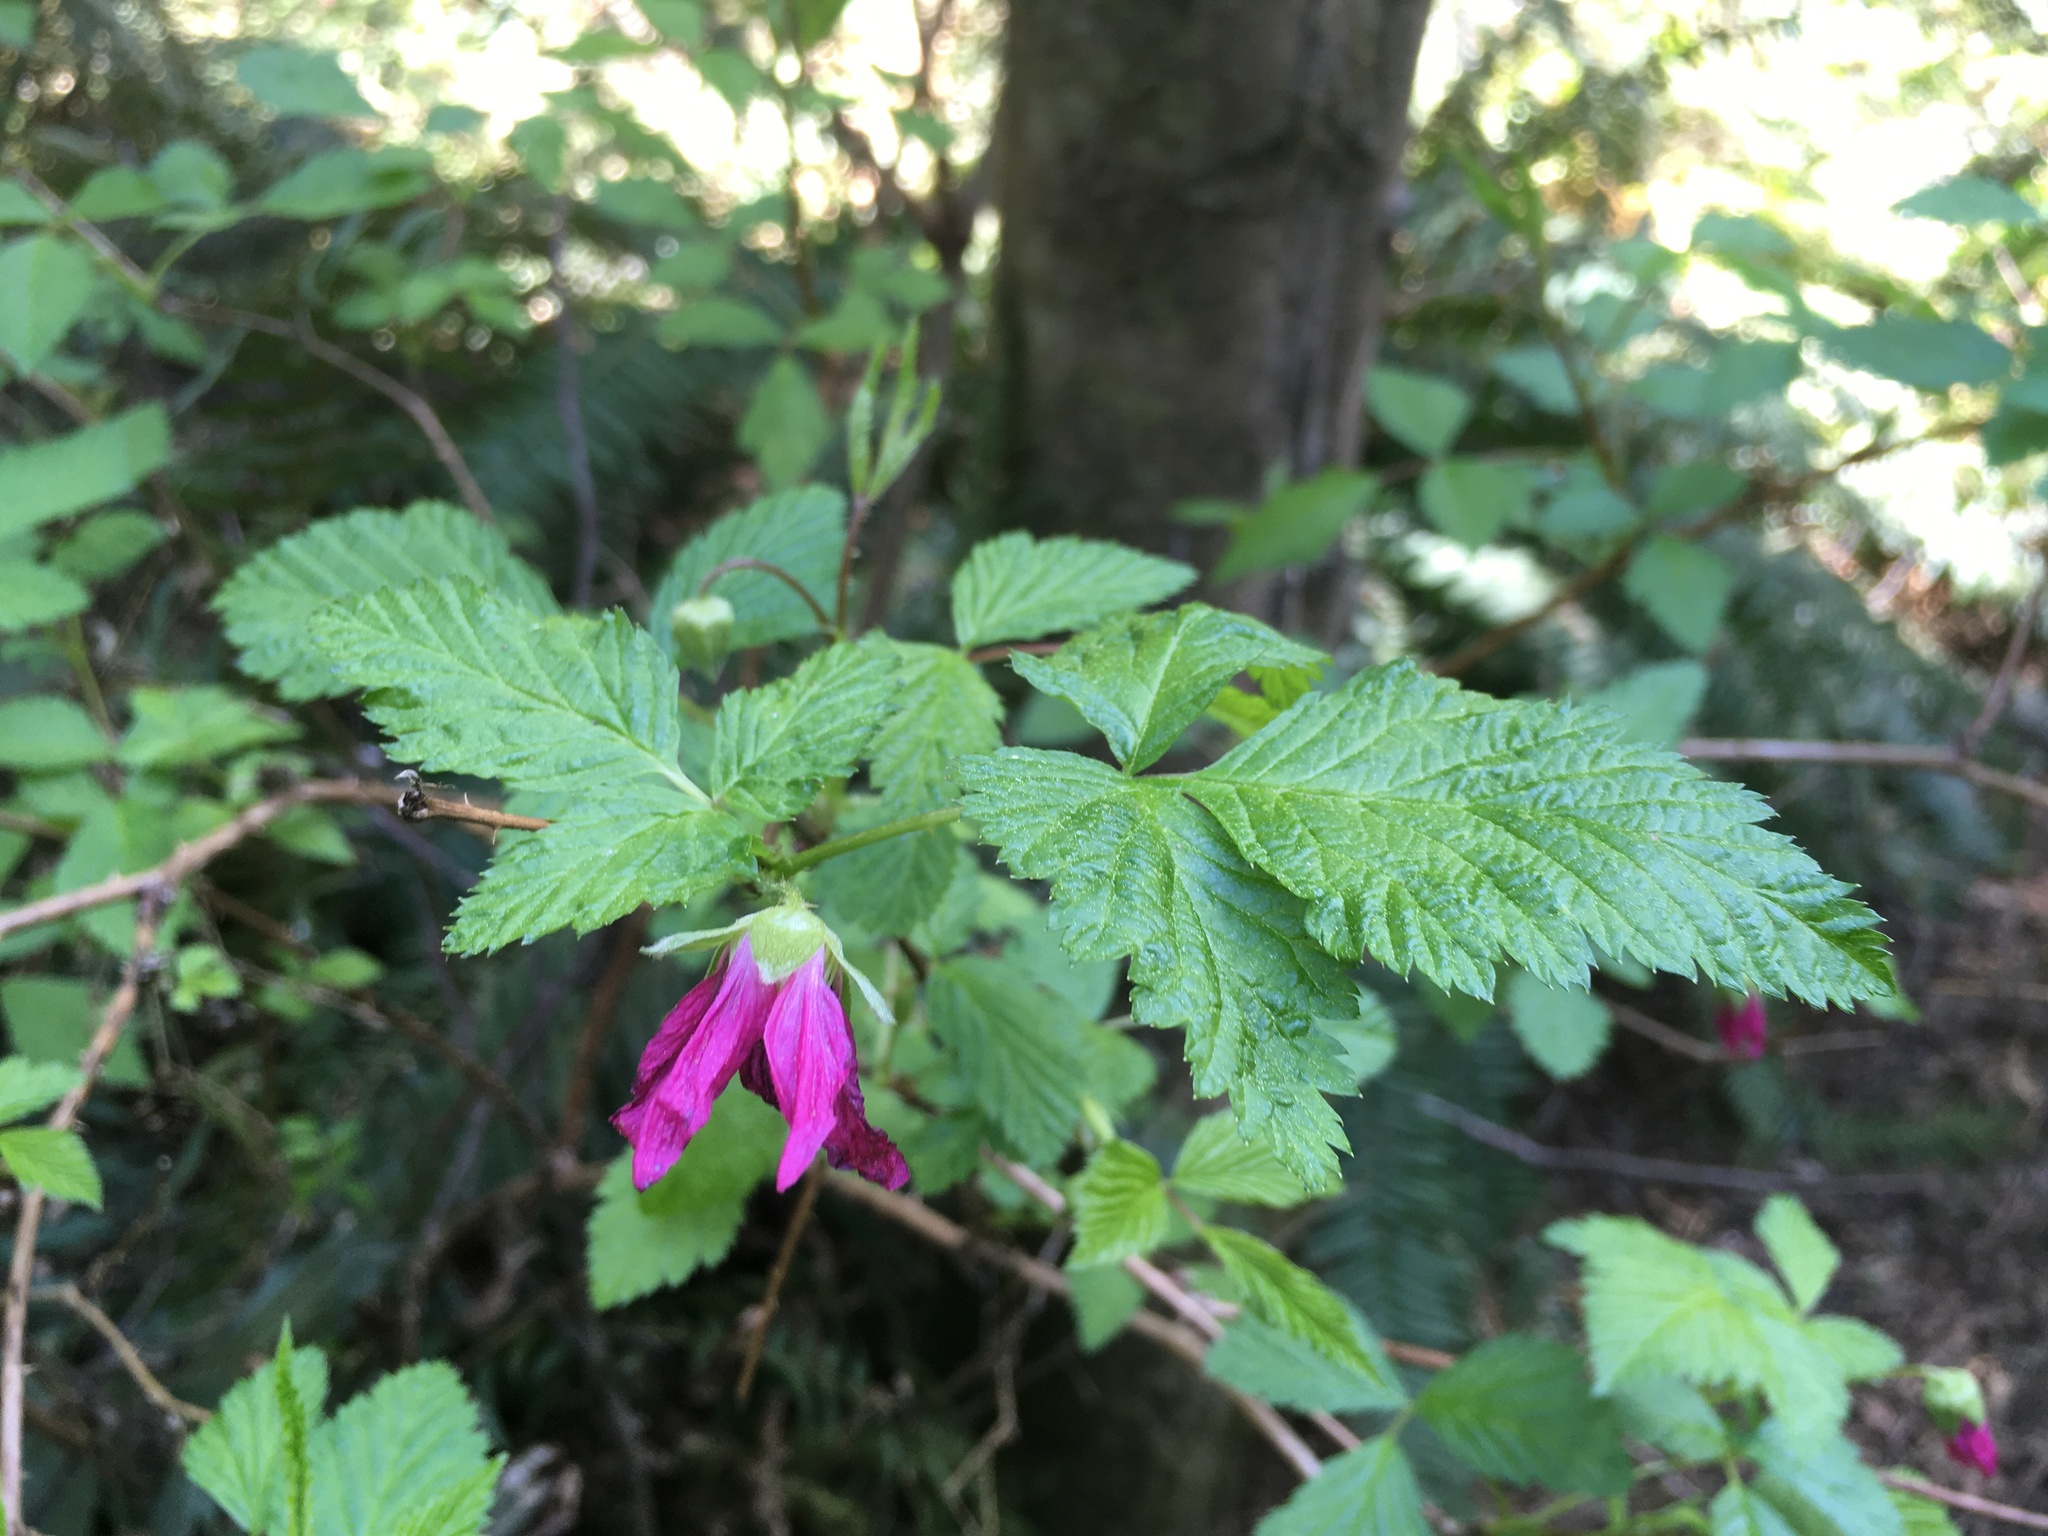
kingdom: Plantae
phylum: Tracheophyta
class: Magnoliopsida
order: Rosales
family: Rosaceae
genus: Rubus
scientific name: Rubus spectabilis
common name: Salmonberry
